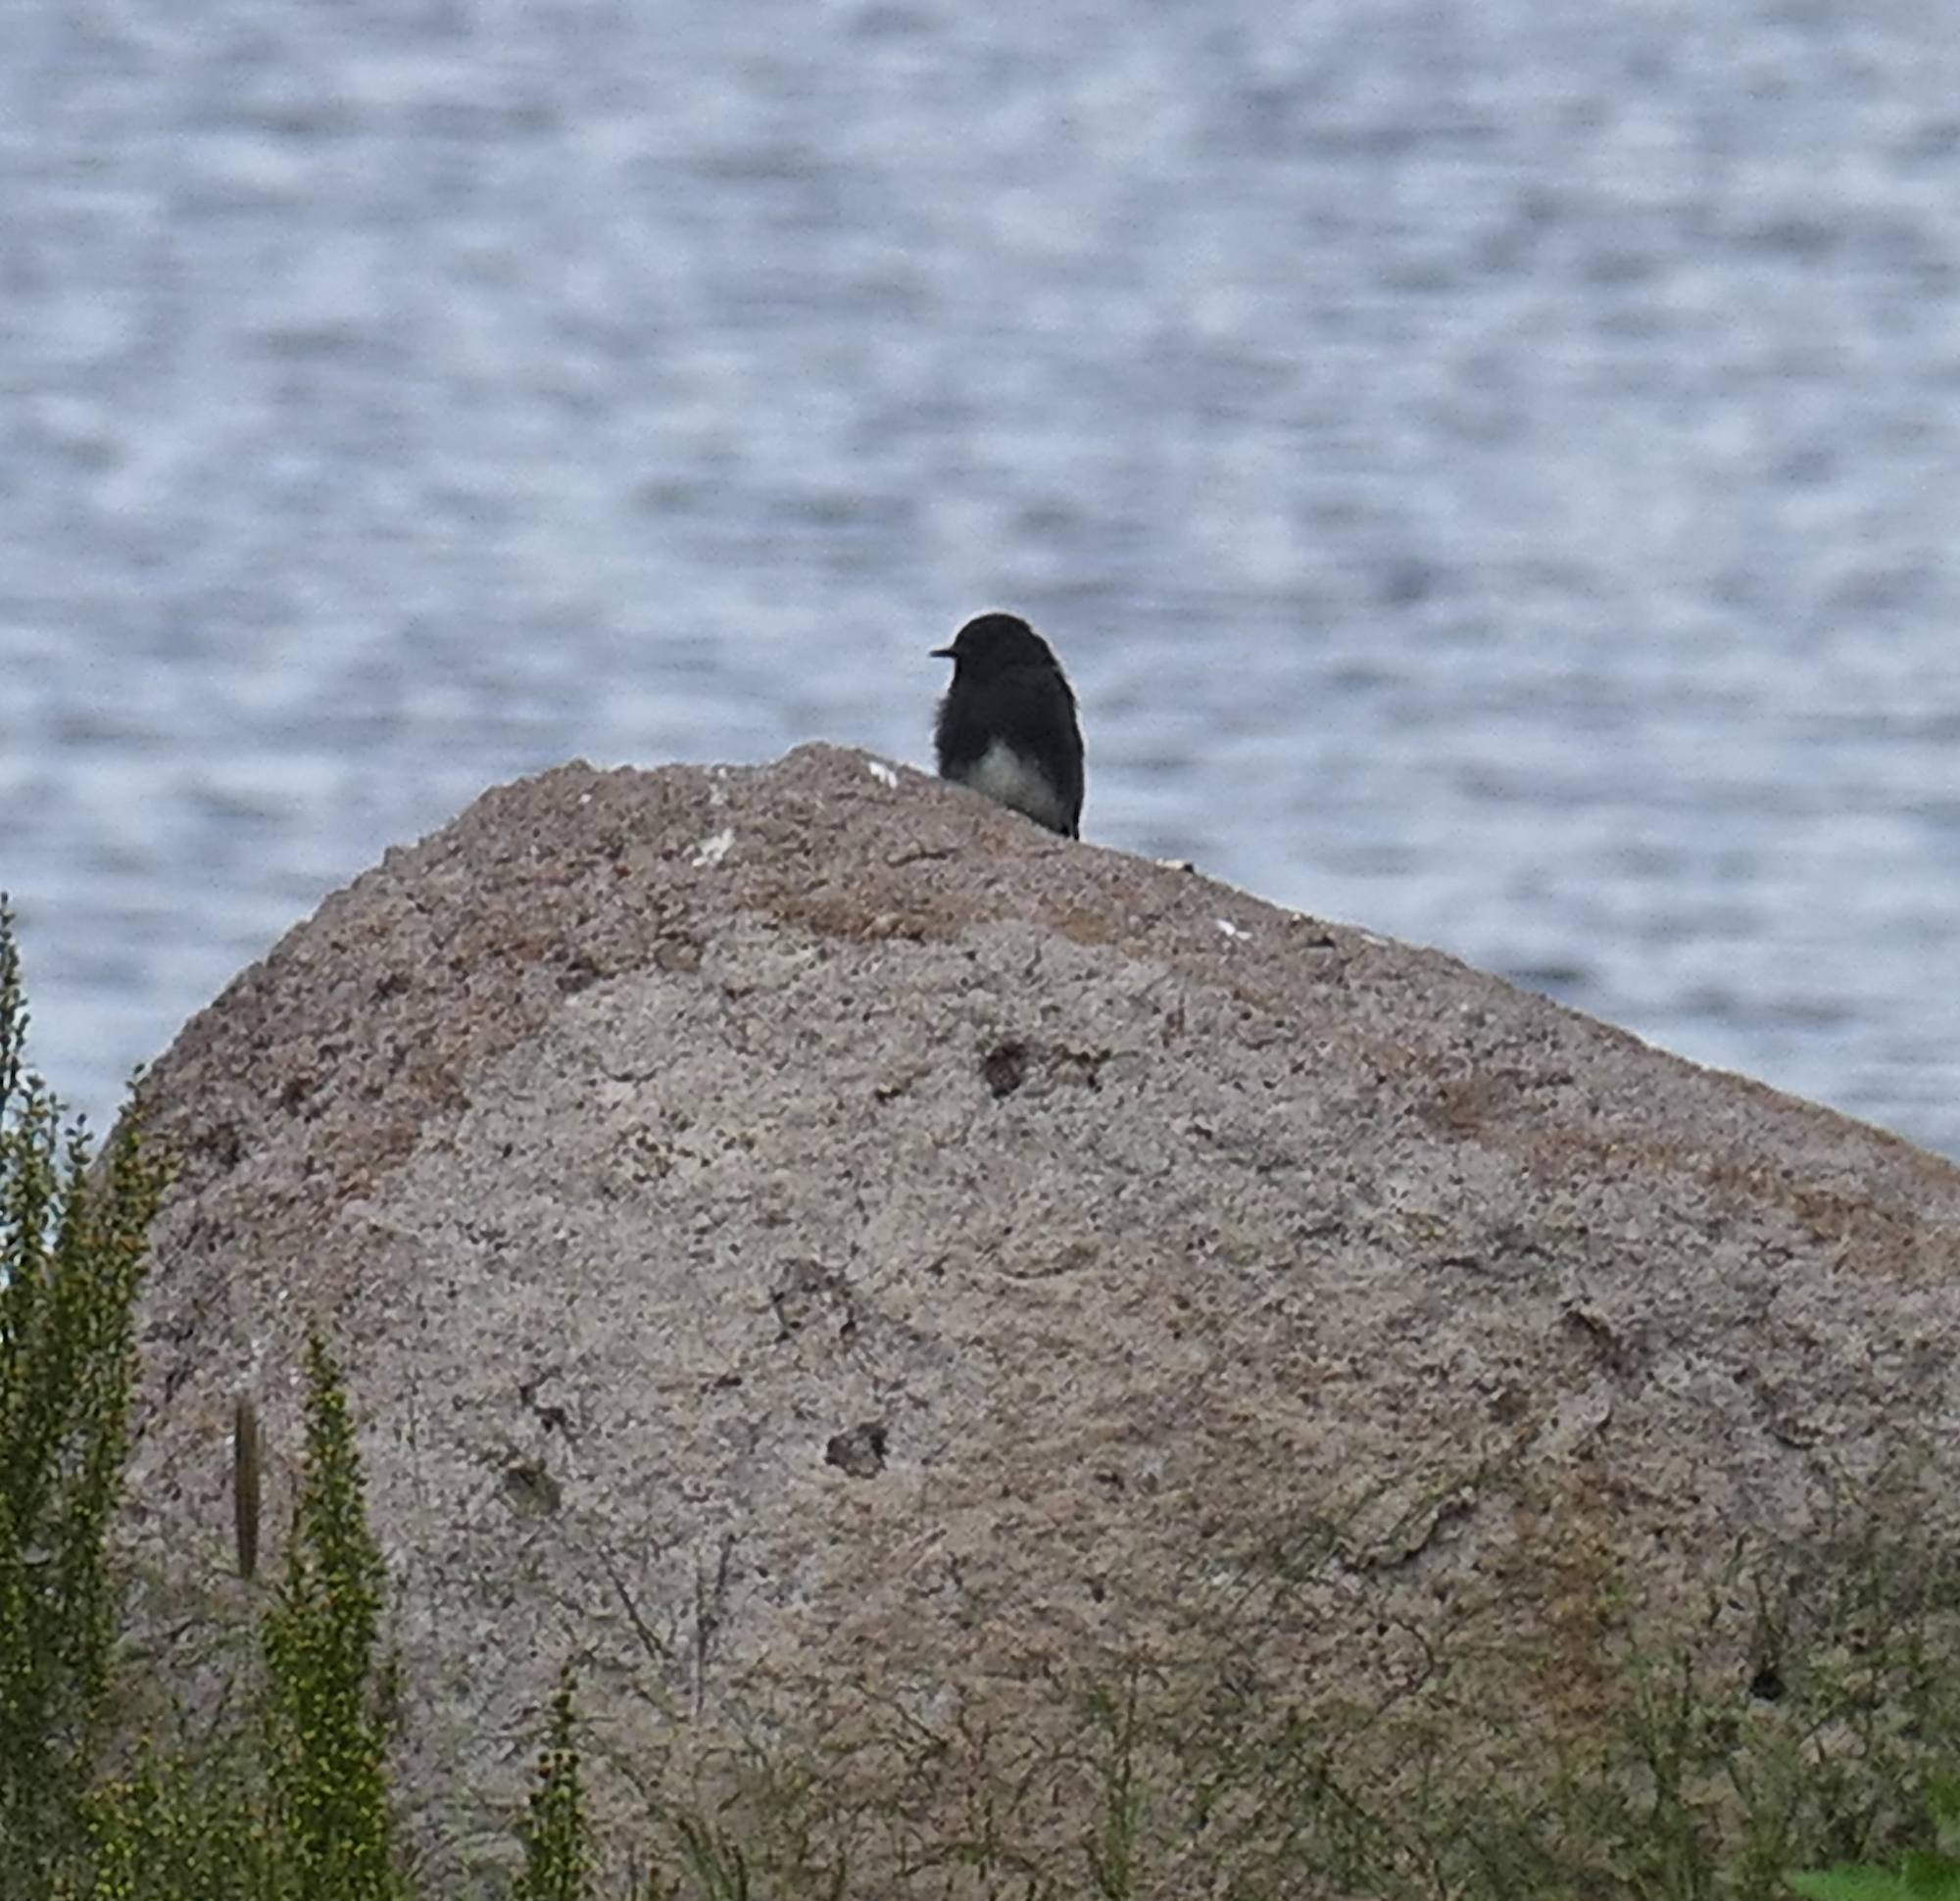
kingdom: Animalia
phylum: Chordata
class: Aves
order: Passeriformes
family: Tyrannidae
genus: Sayornis
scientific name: Sayornis nigricans
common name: Black phoebe
